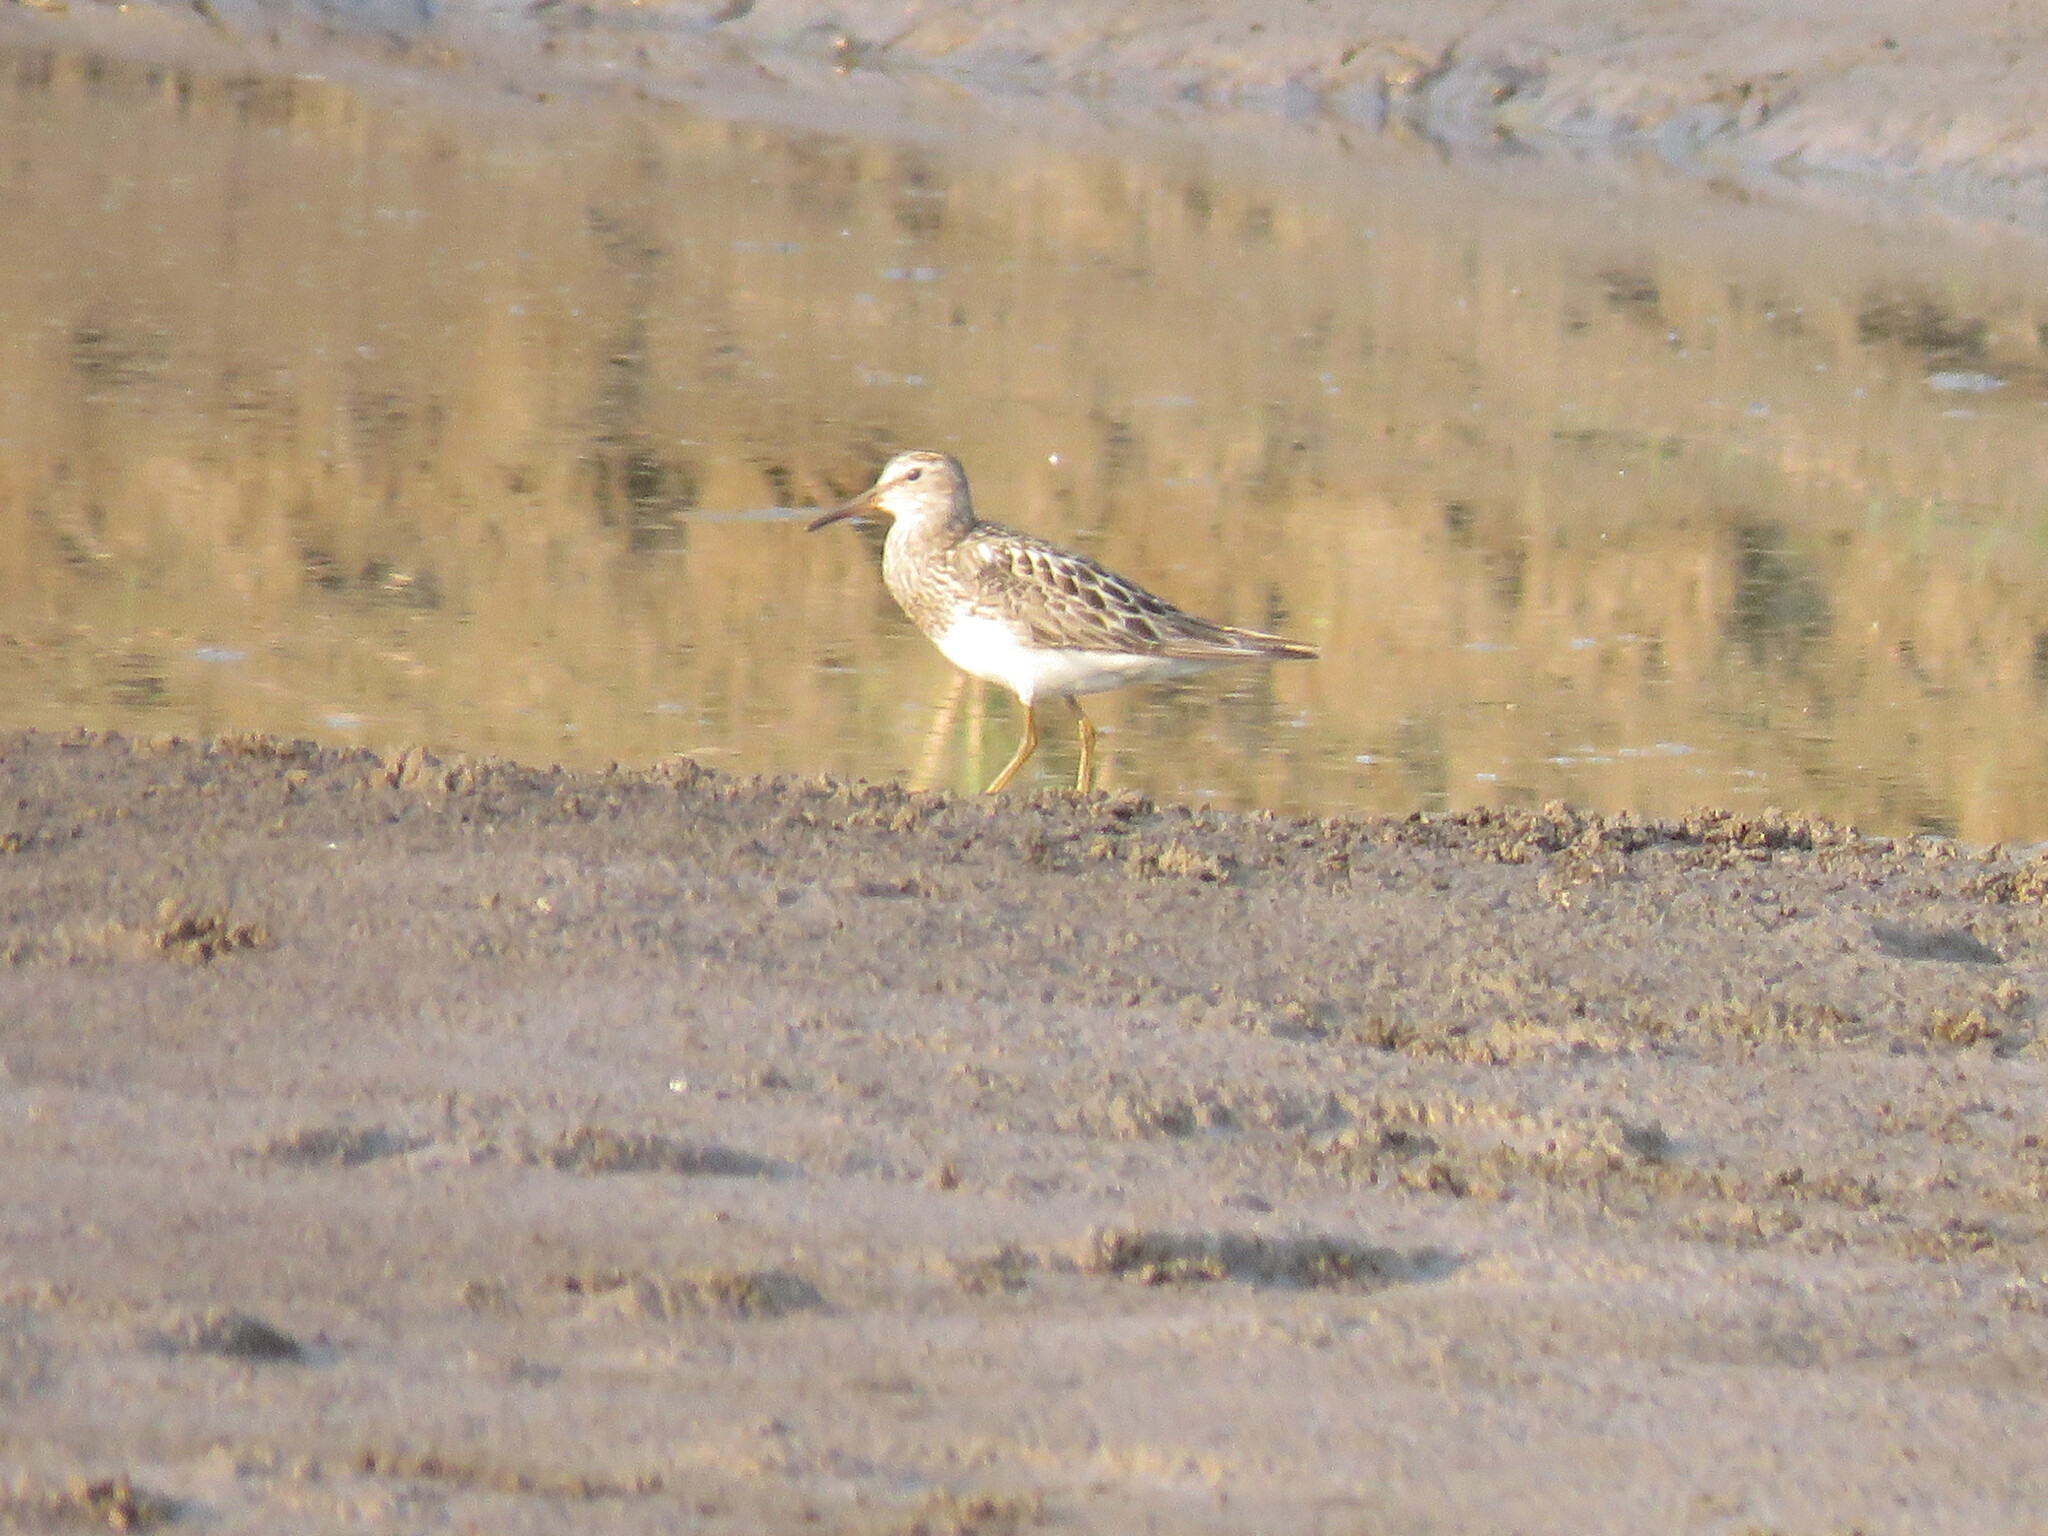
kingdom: Animalia
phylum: Chordata
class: Aves
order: Charadriiformes
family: Scolopacidae
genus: Calidris
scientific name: Calidris melanotos
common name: Pectoral sandpiper
